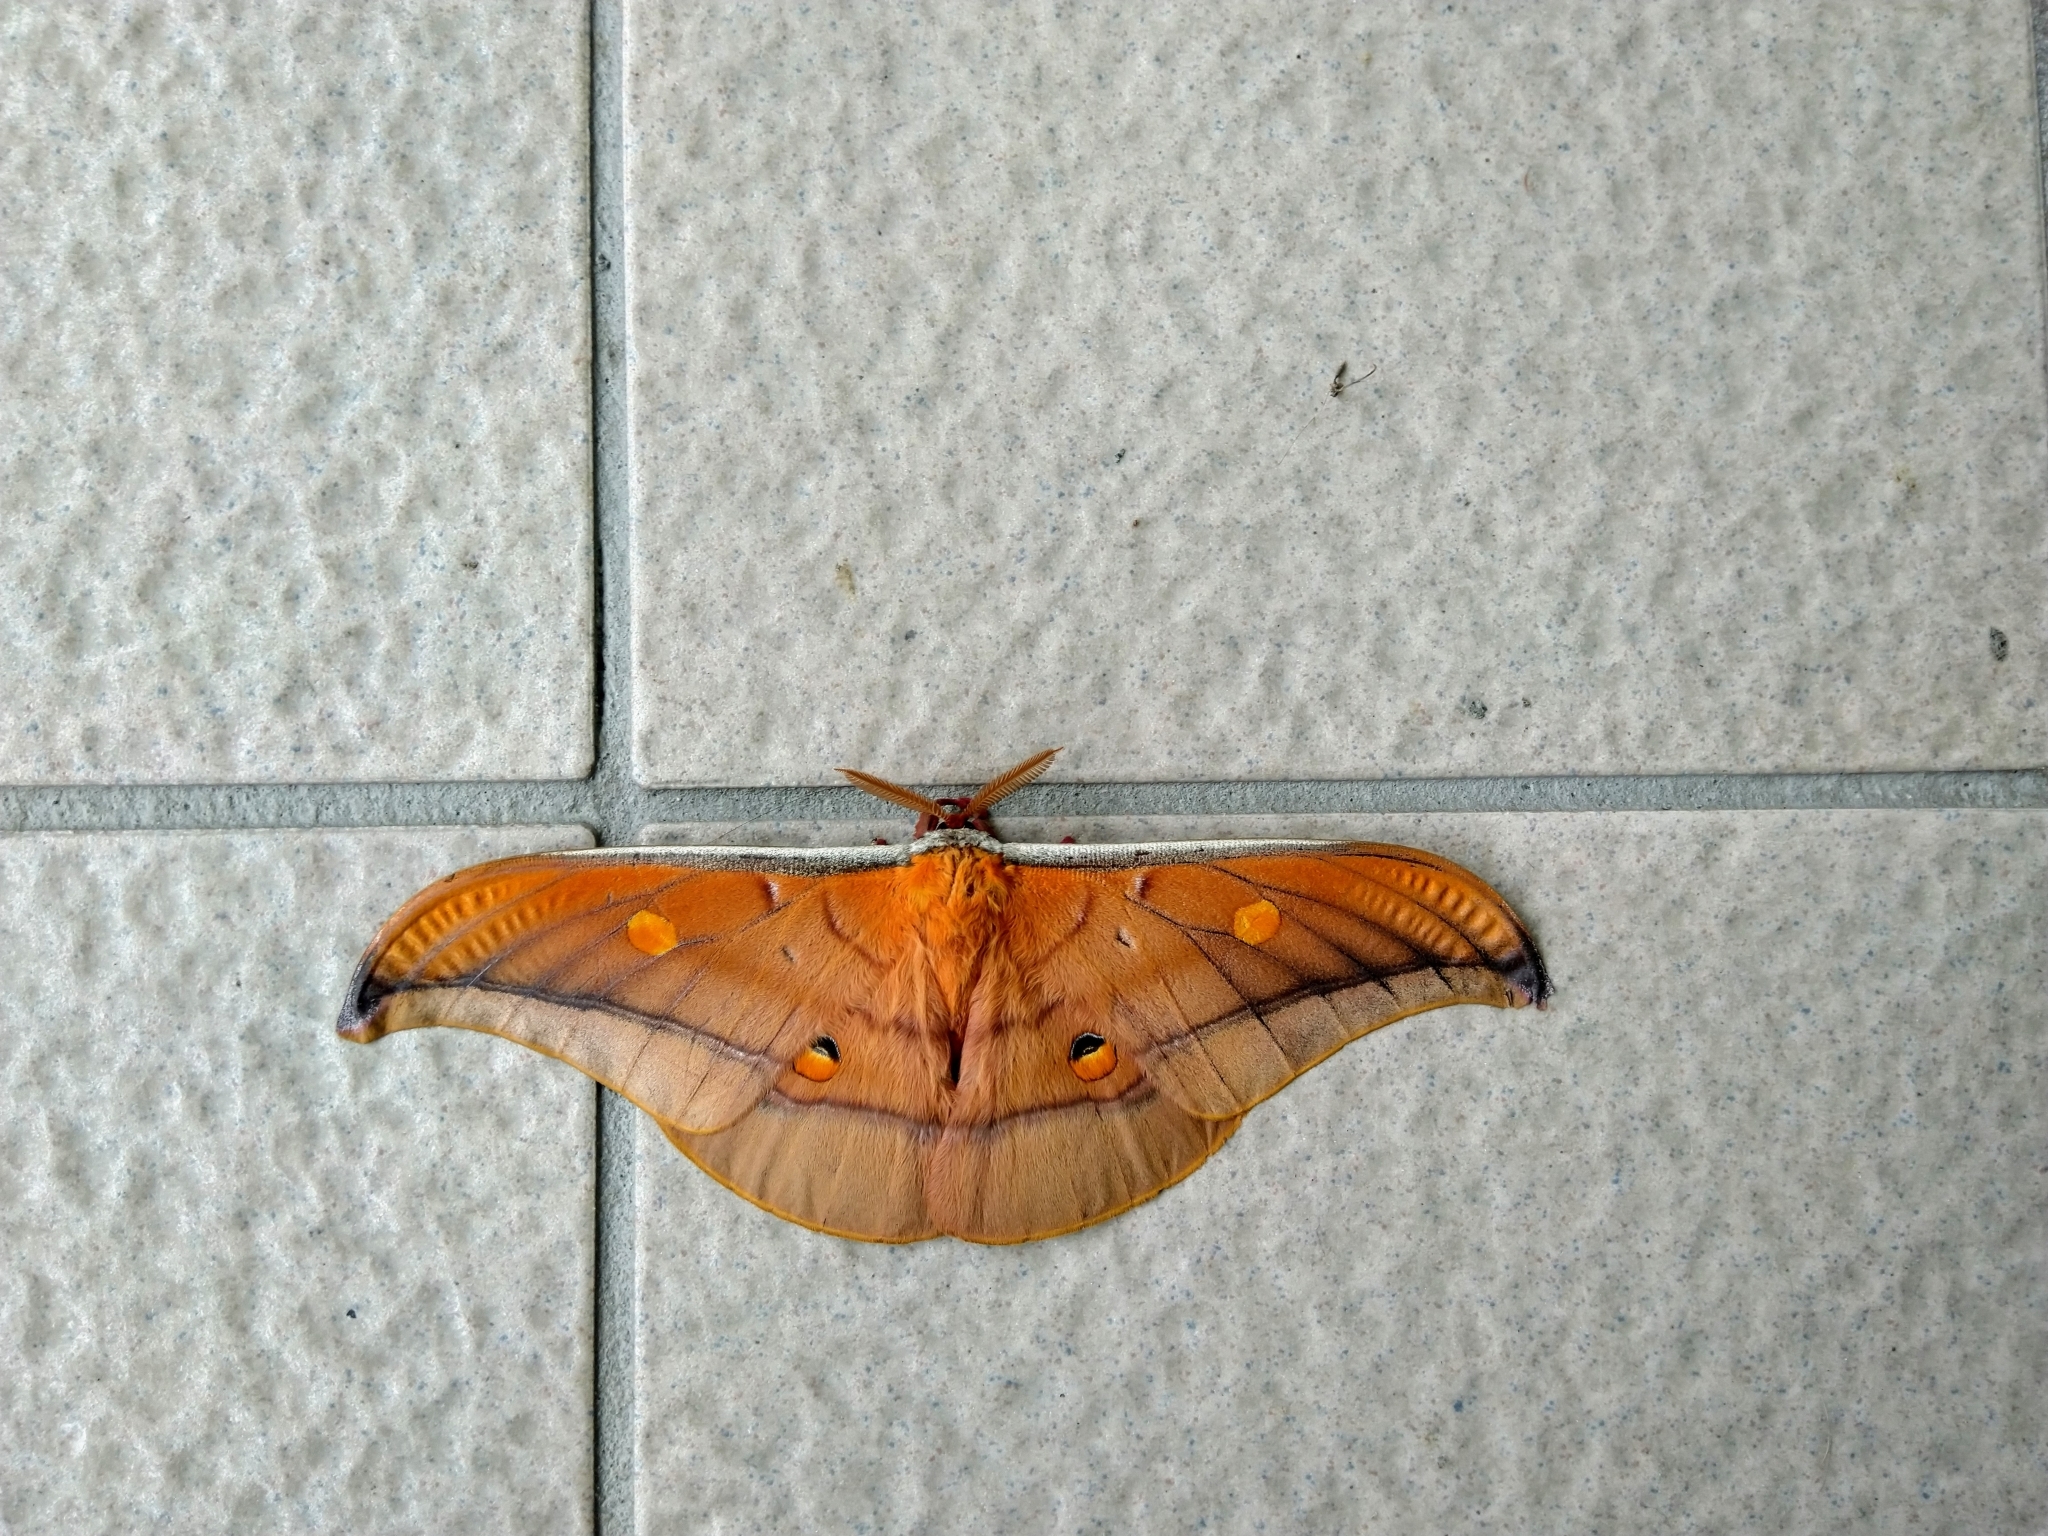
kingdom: Animalia
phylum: Arthropoda
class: Insecta
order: Lepidoptera
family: Saturniidae
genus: Antheraea
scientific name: Antheraea formosana
